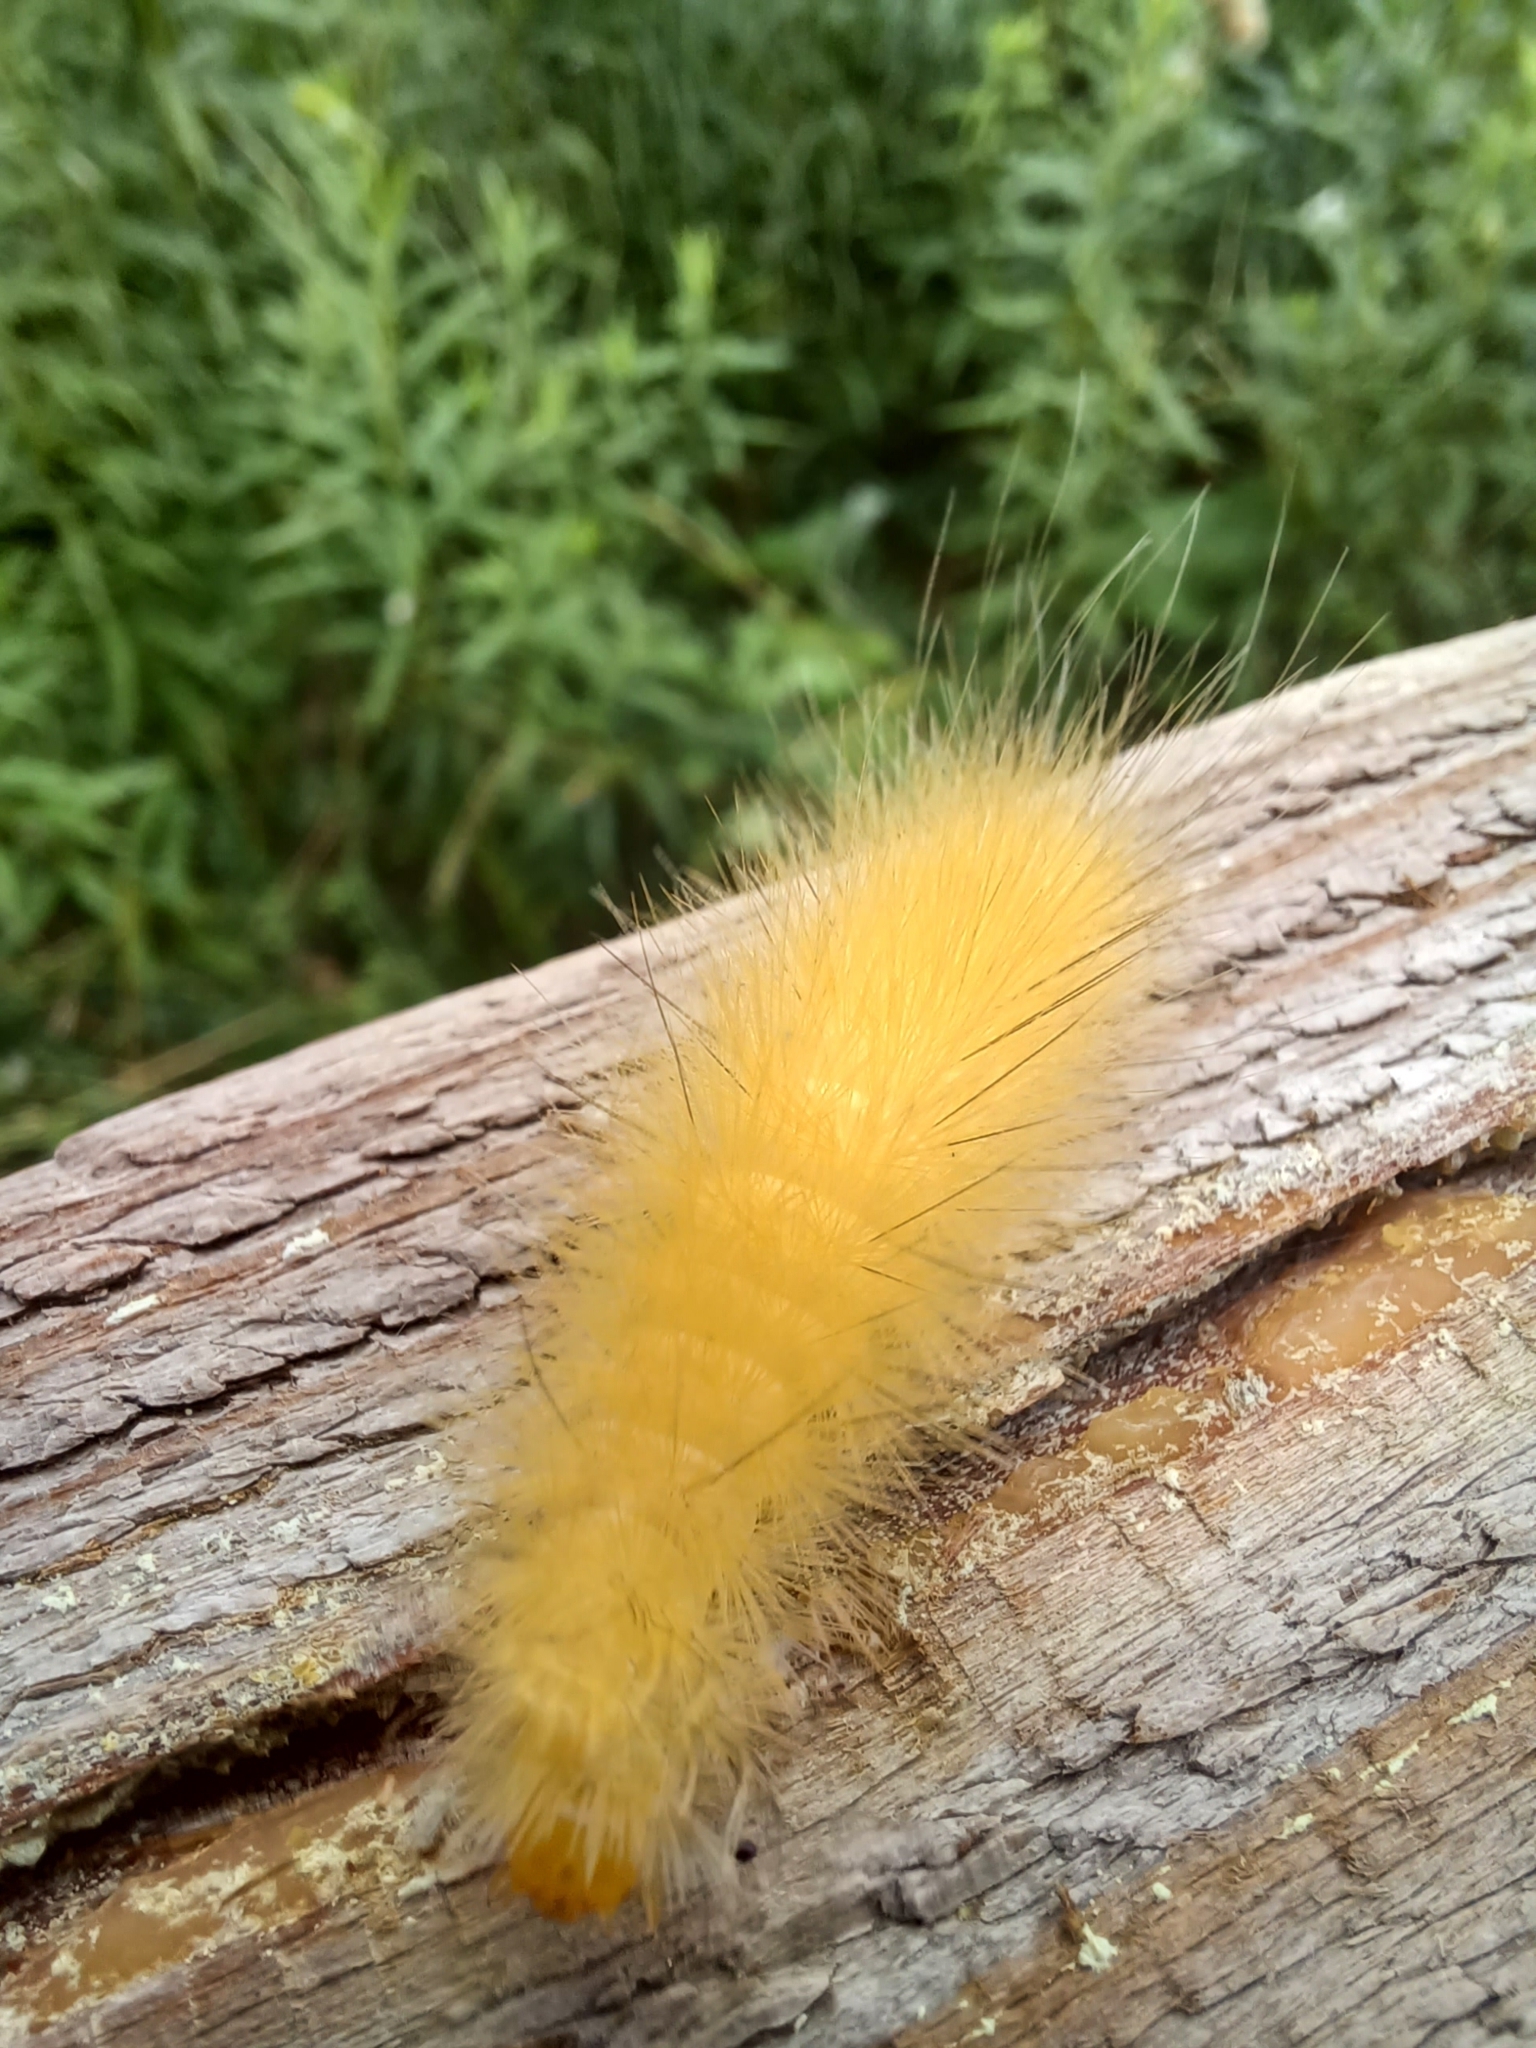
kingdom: Animalia
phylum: Arthropoda
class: Insecta
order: Lepidoptera
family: Erebidae
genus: Spilosoma
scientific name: Spilosoma virginica
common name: Virginia tiger moth
